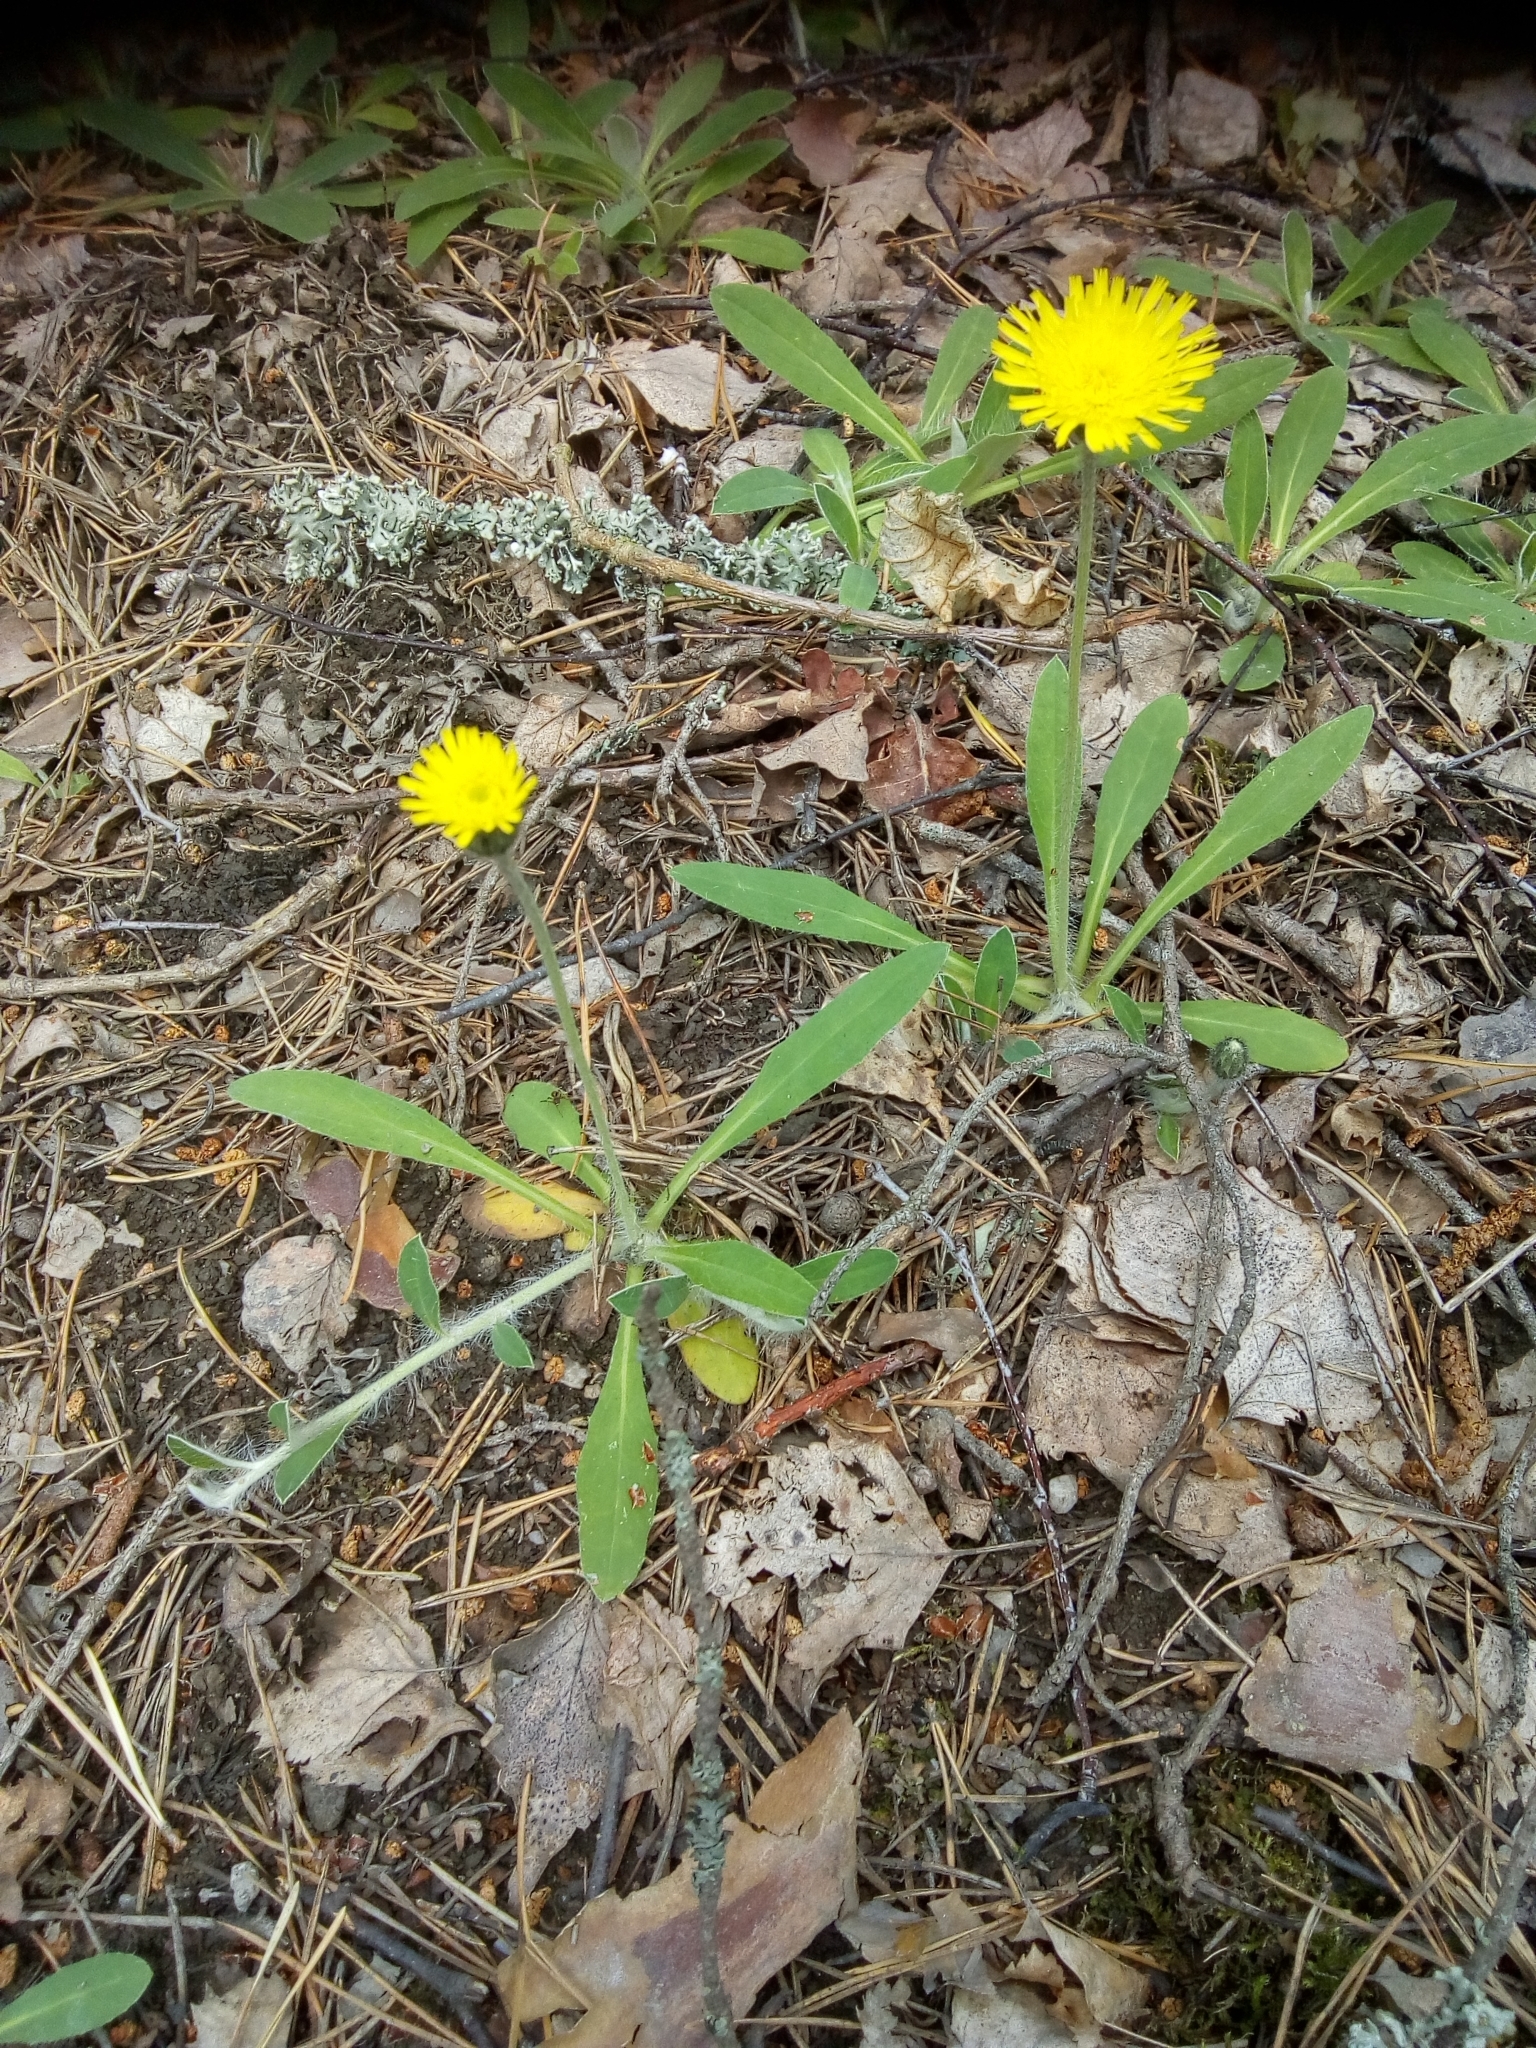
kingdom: Plantae
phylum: Tracheophyta
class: Magnoliopsida
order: Asterales
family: Asteraceae
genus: Pilosella
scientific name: Pilosella officinarum
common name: Mouse-ear hawkweed
